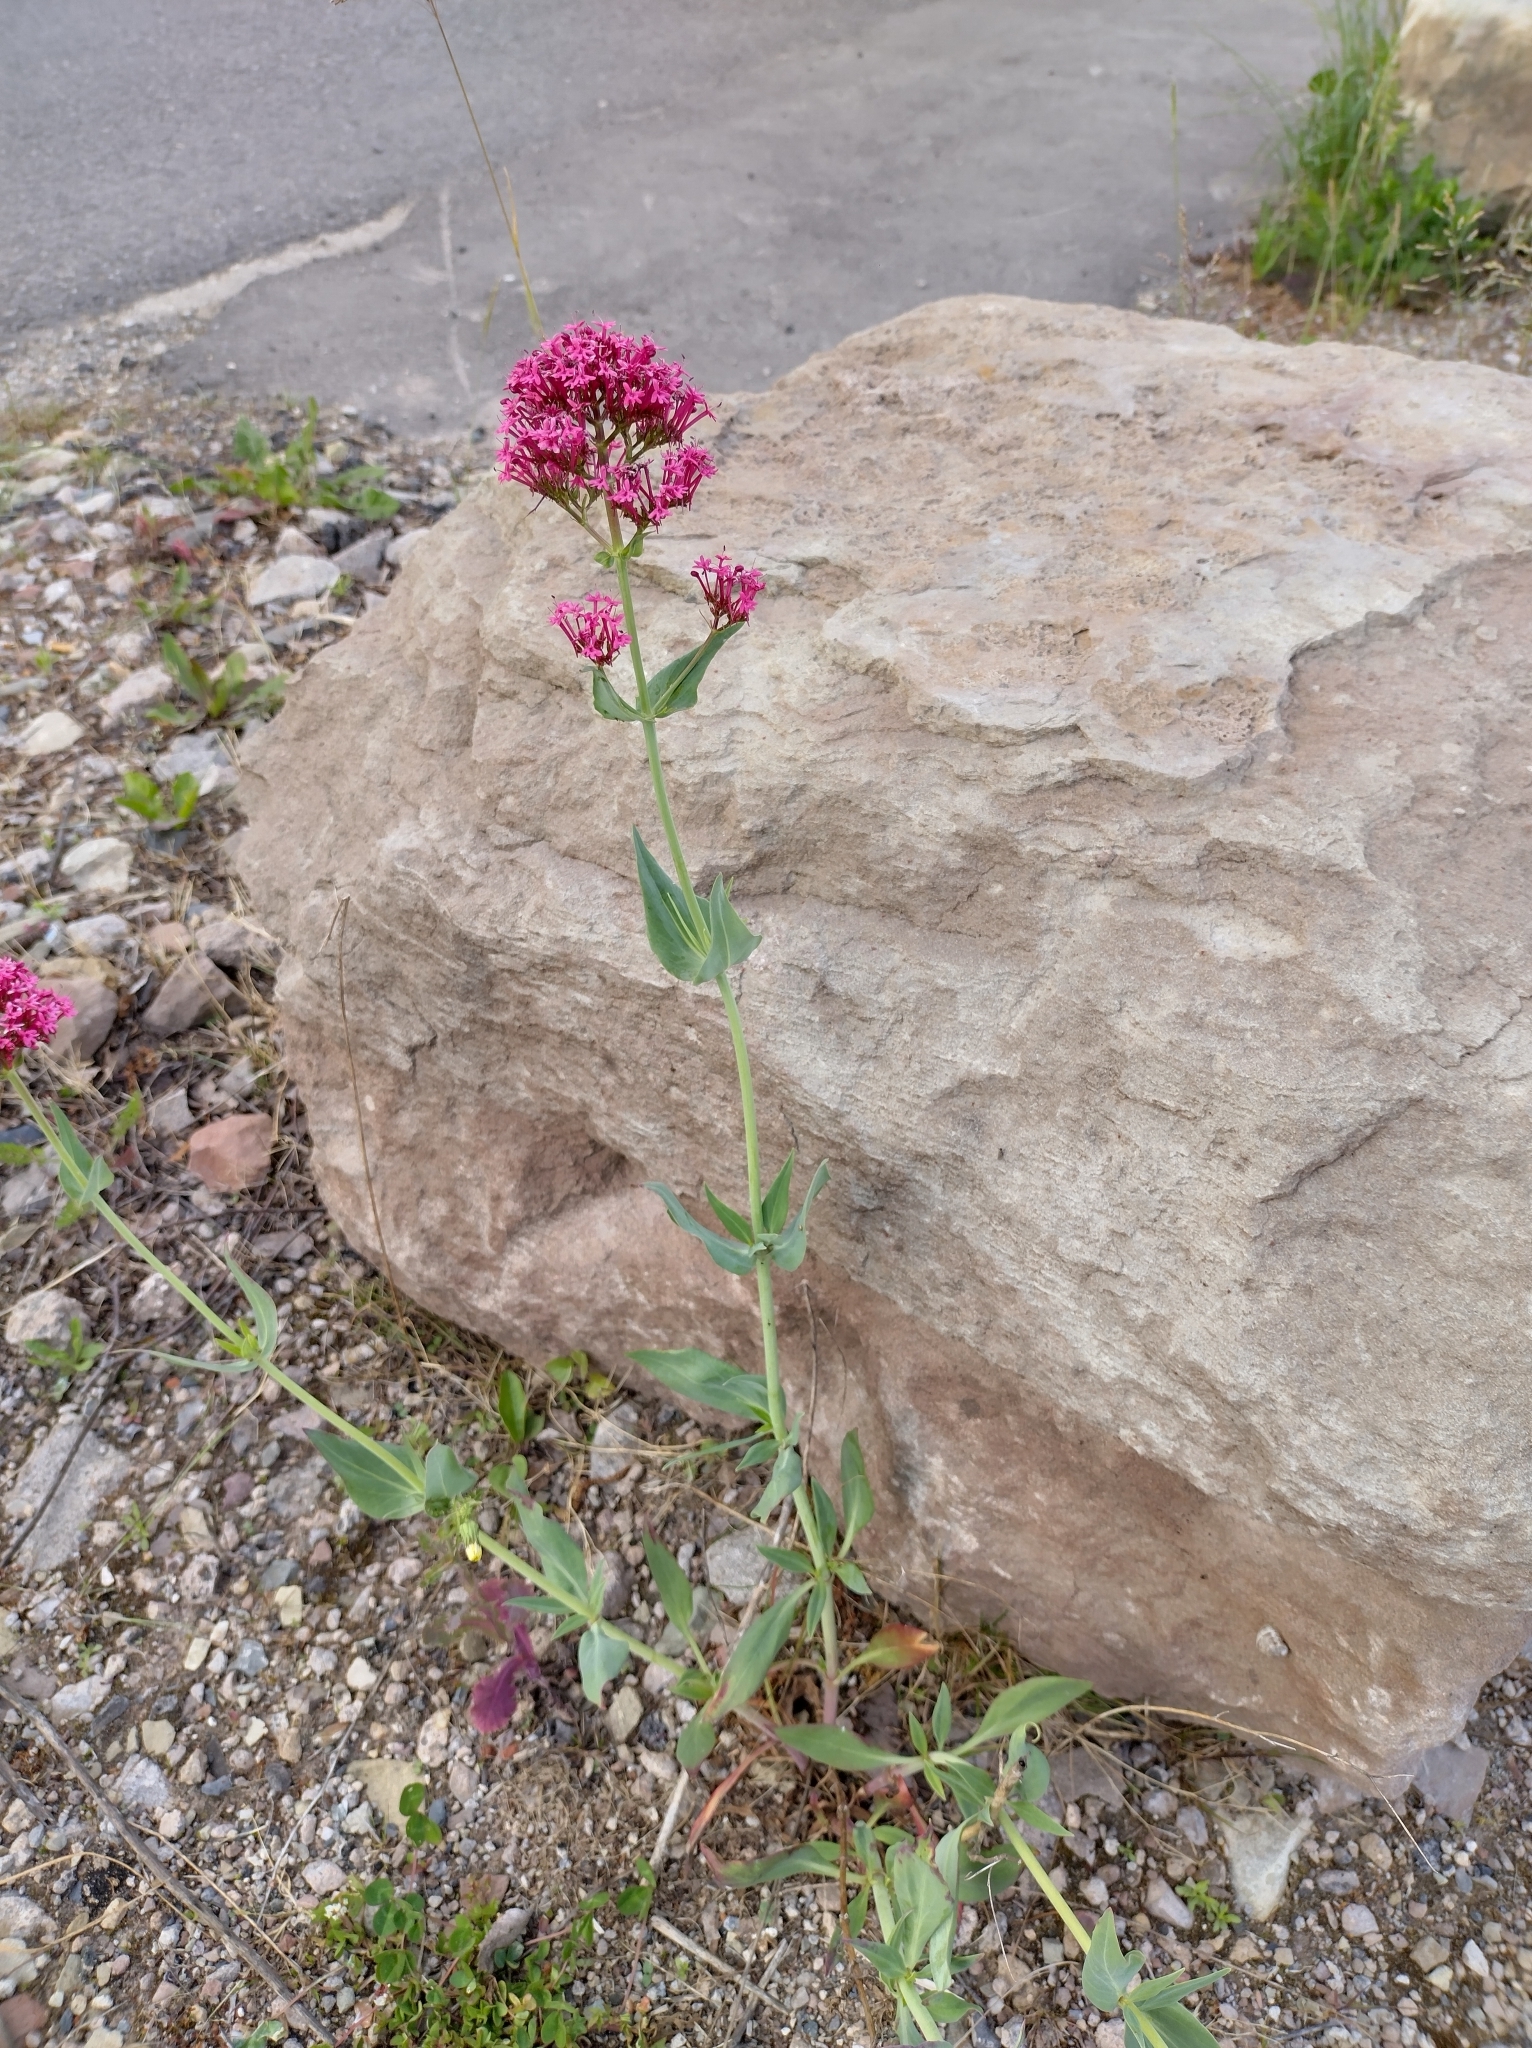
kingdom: Plantae
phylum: Tracheophyta
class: Magnoliopsida
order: Dipsacales
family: Caprifoliaceae
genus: Centranthus
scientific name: Centranthus ruber
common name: Red valerian
